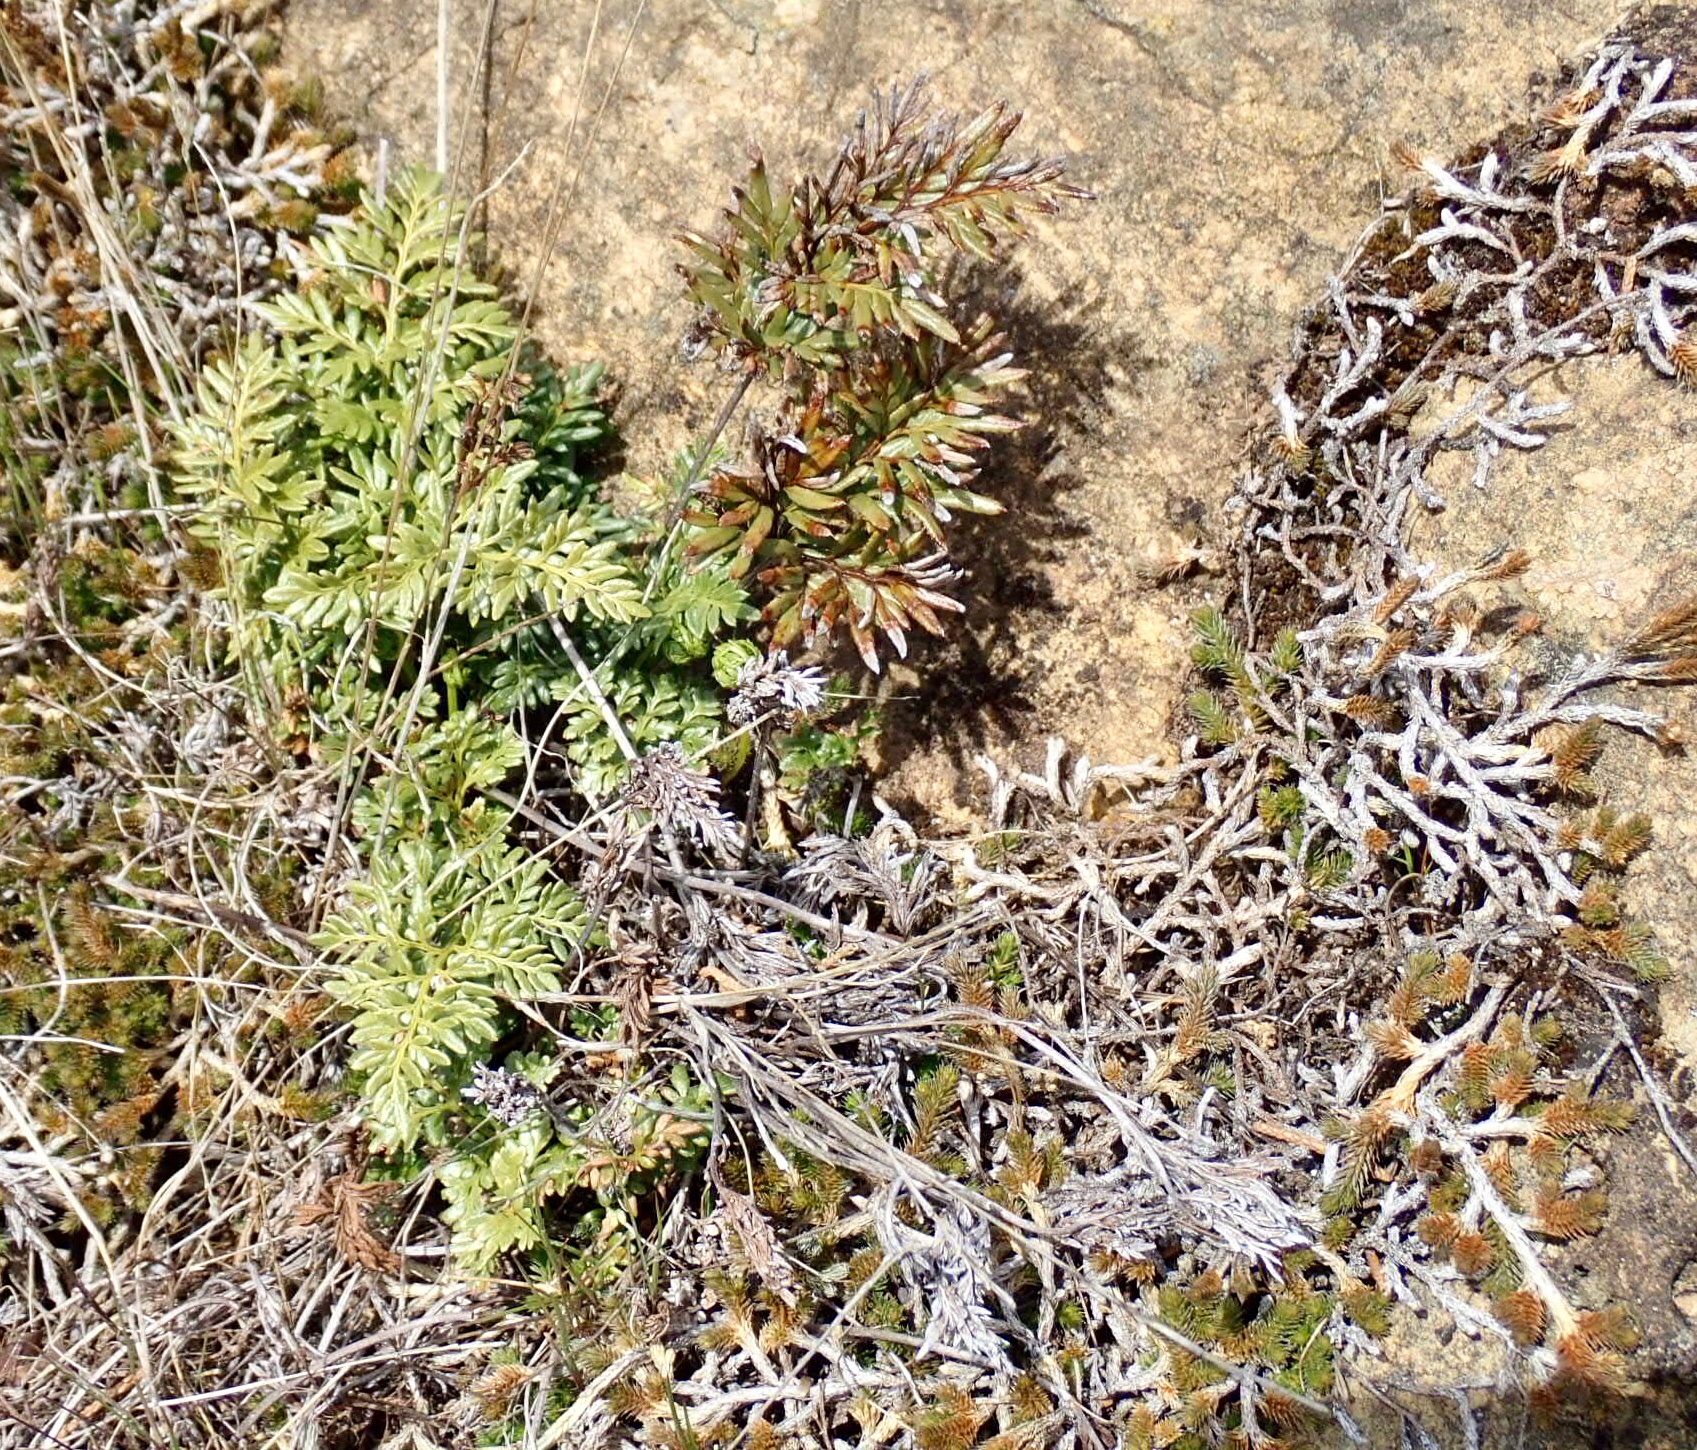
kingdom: Plantae
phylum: Tracheophyta
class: Polypodiopsida
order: Polypodiales
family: Pteridaceae
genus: Aspidotis
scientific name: Aspidotis densa
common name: Indian's dream
